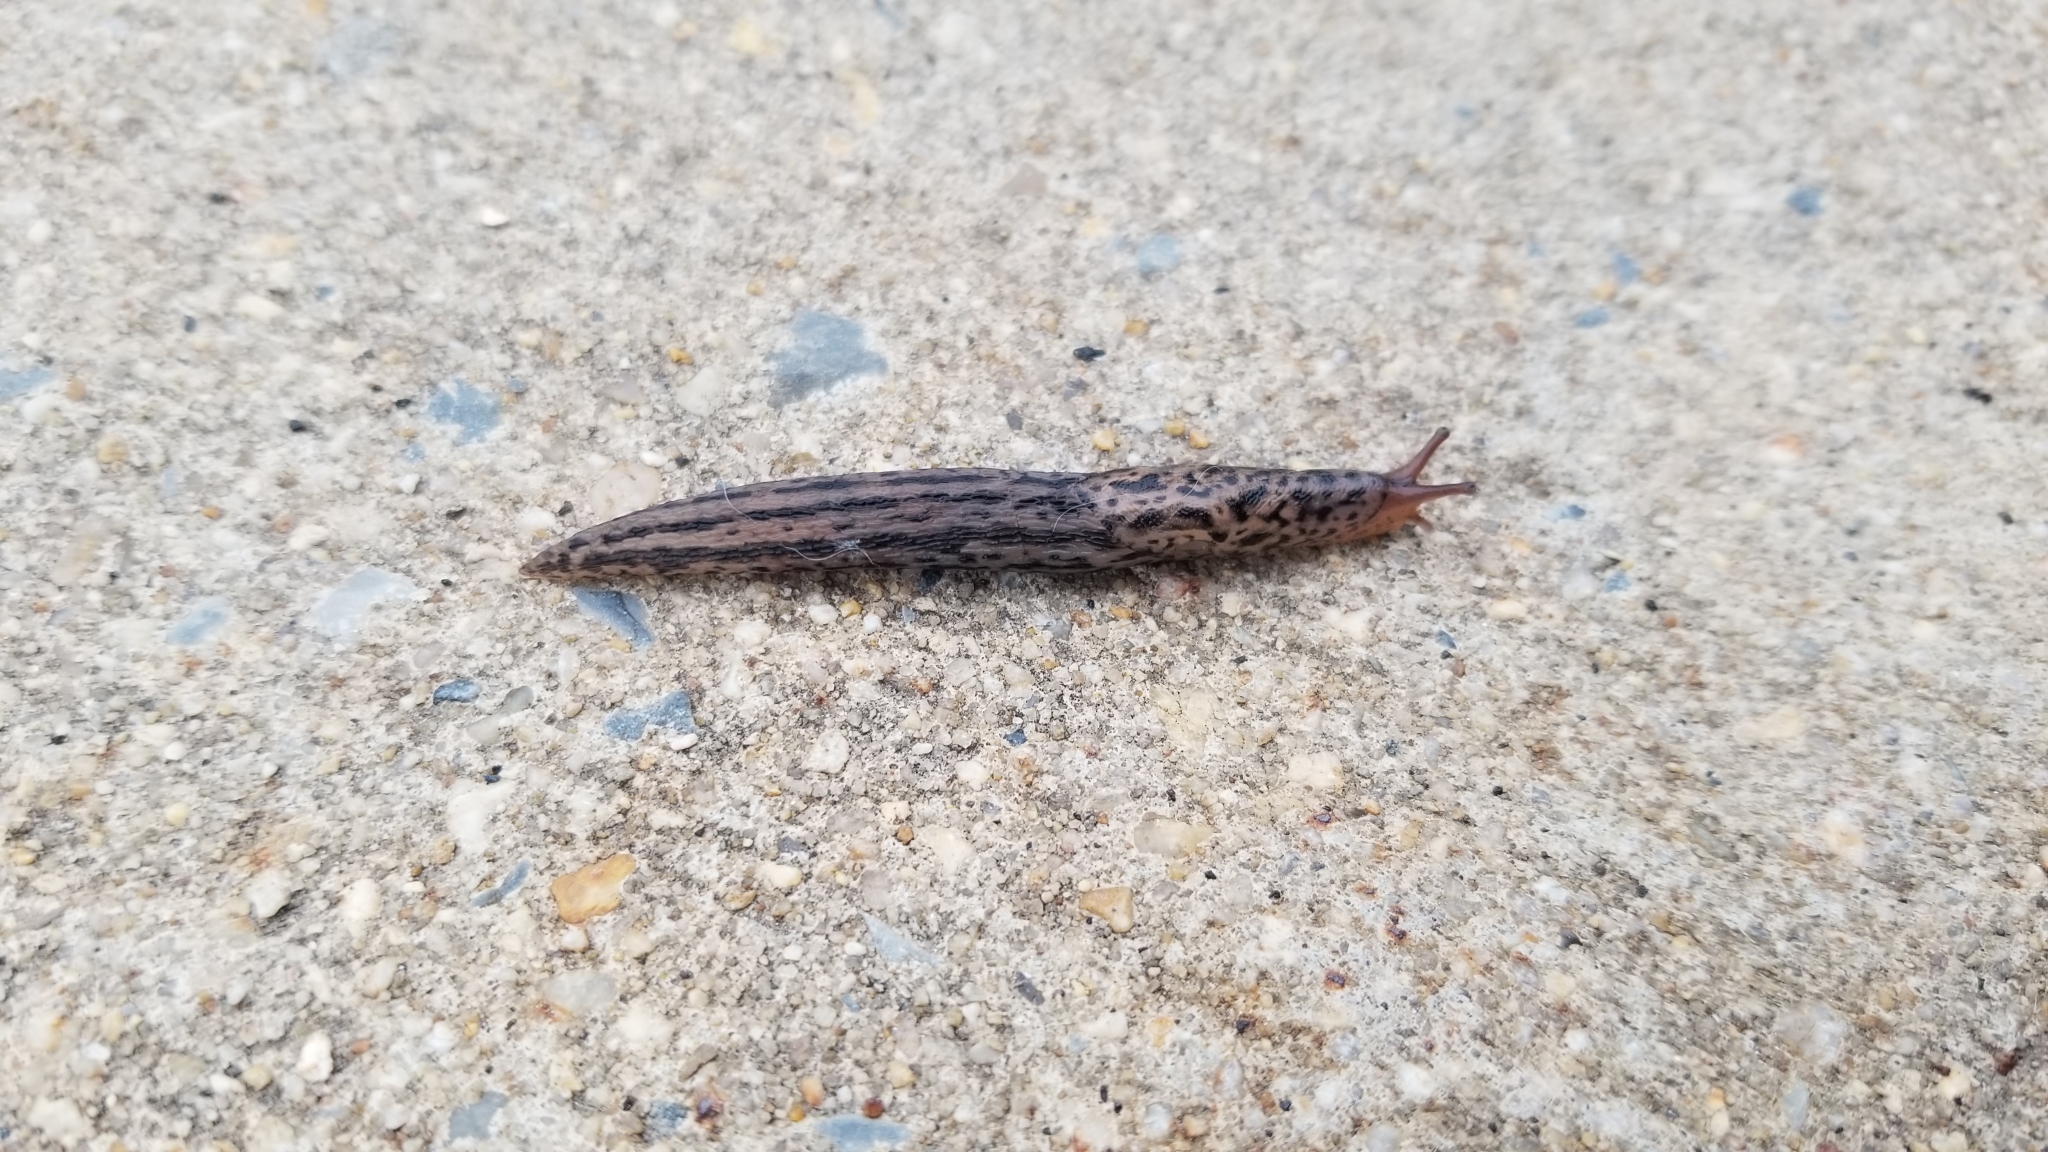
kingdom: Animalia
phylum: Mollusca
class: Gastropoda
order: Stylommatophora
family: Limacidae
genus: Limax
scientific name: Limax maximus
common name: Great grey slug
